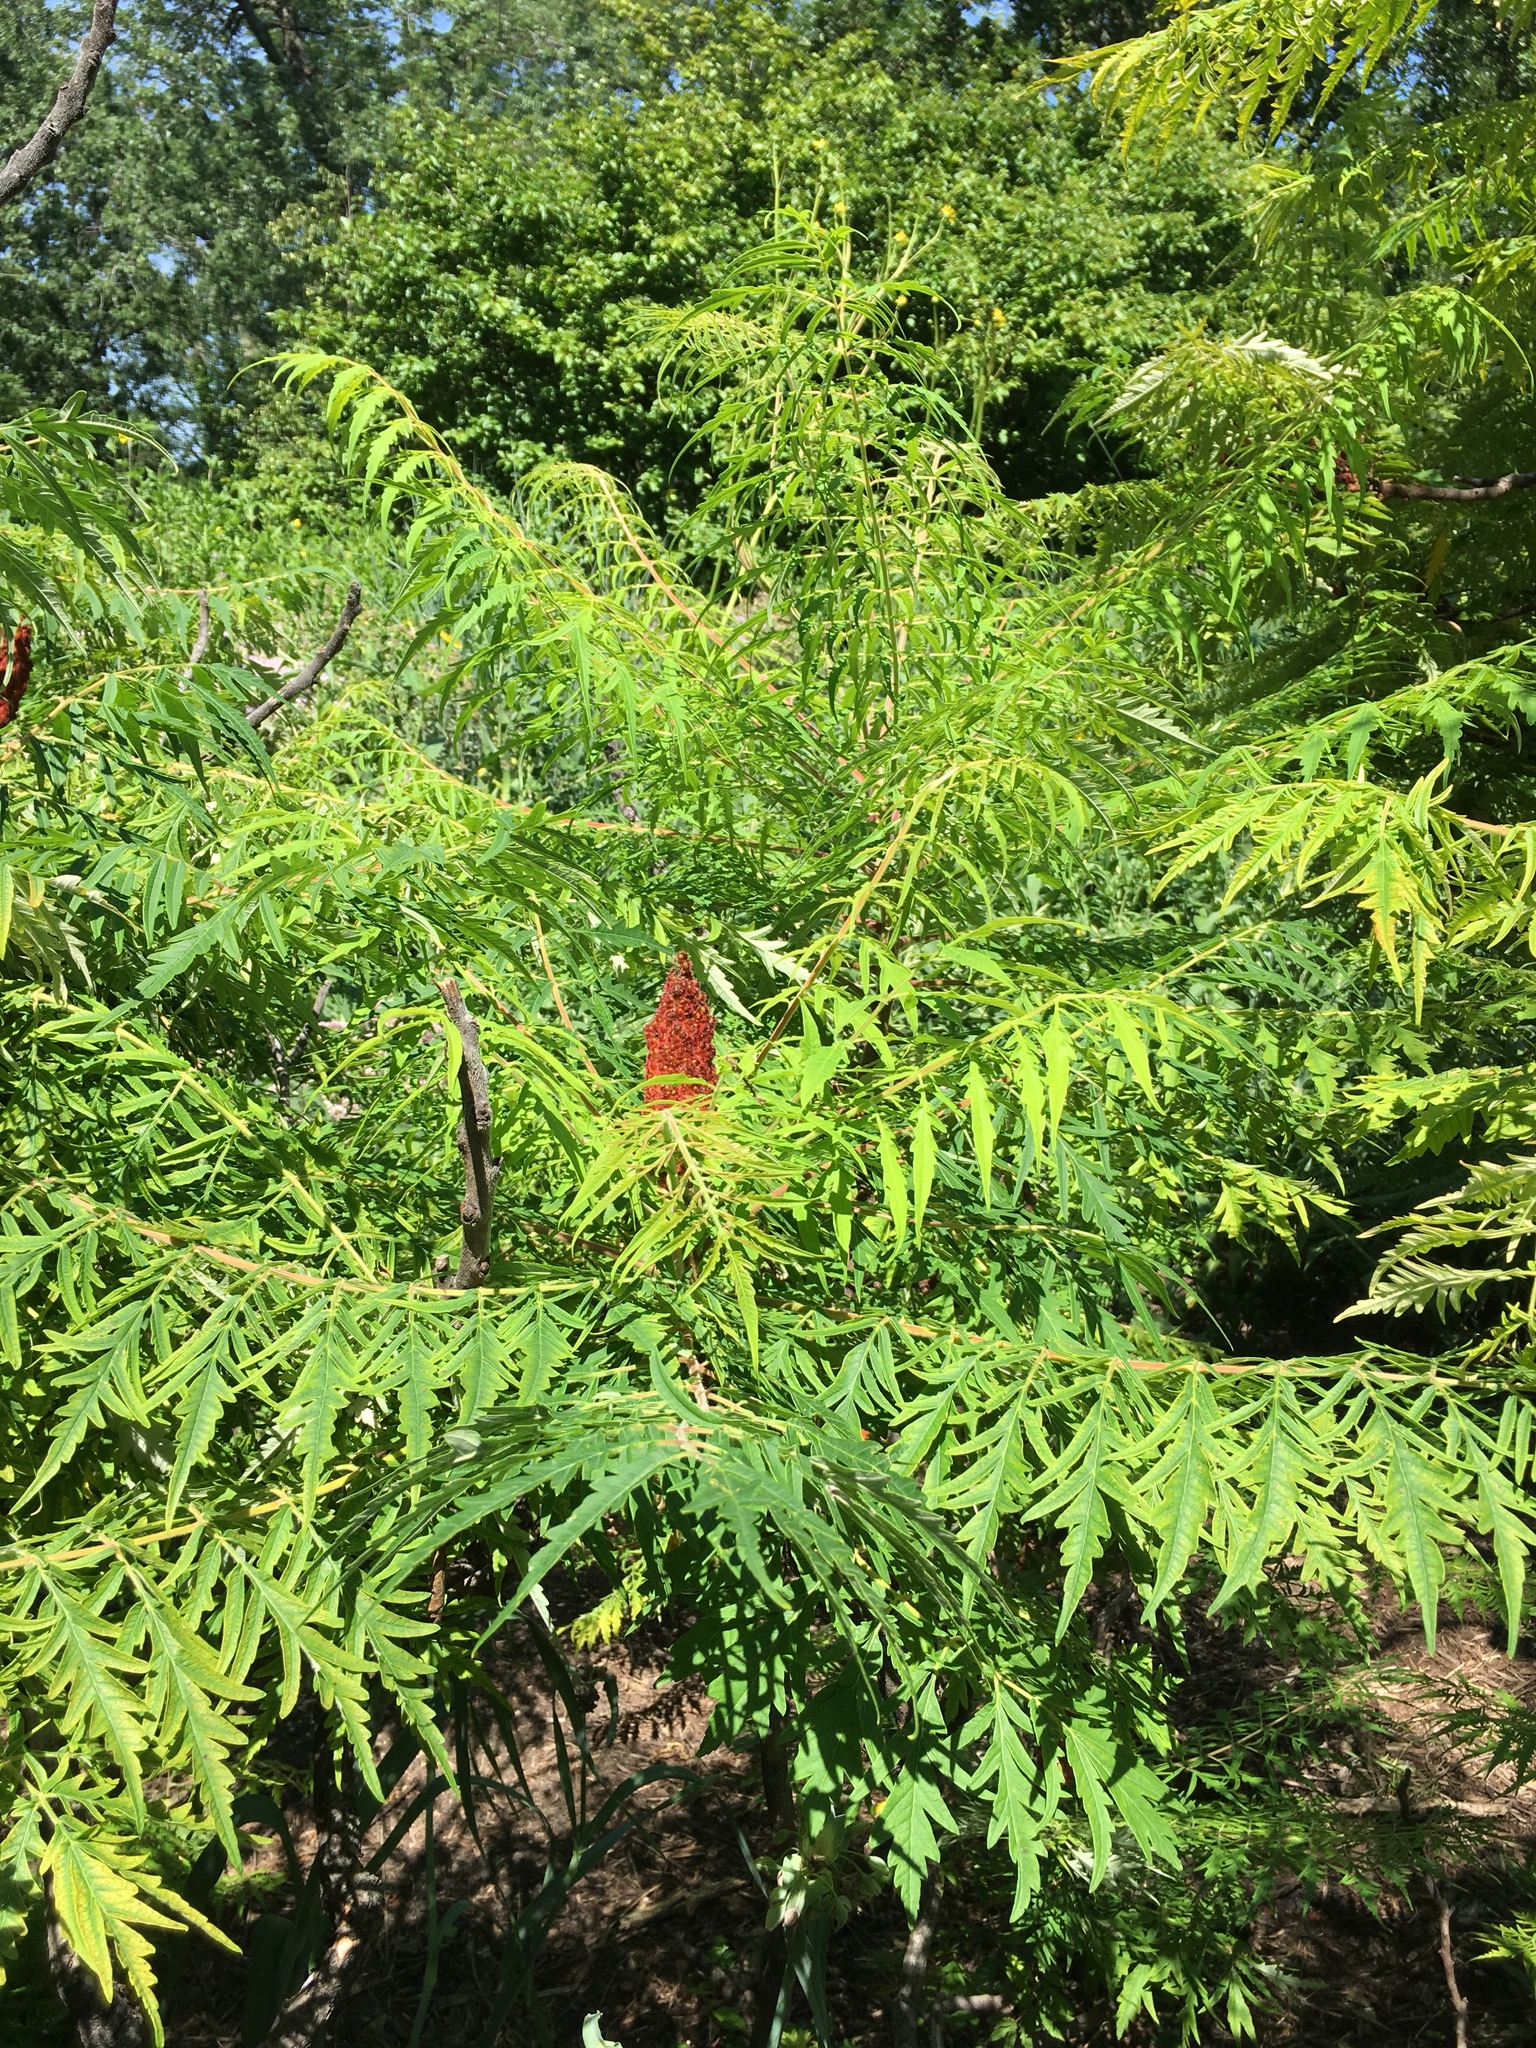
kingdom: Plantae
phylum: Tracheophyta
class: Magnoliopsida
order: Sapindales
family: Anacardiaceae
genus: Rhus
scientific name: Rhus typhina
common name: Staghorn sumac
